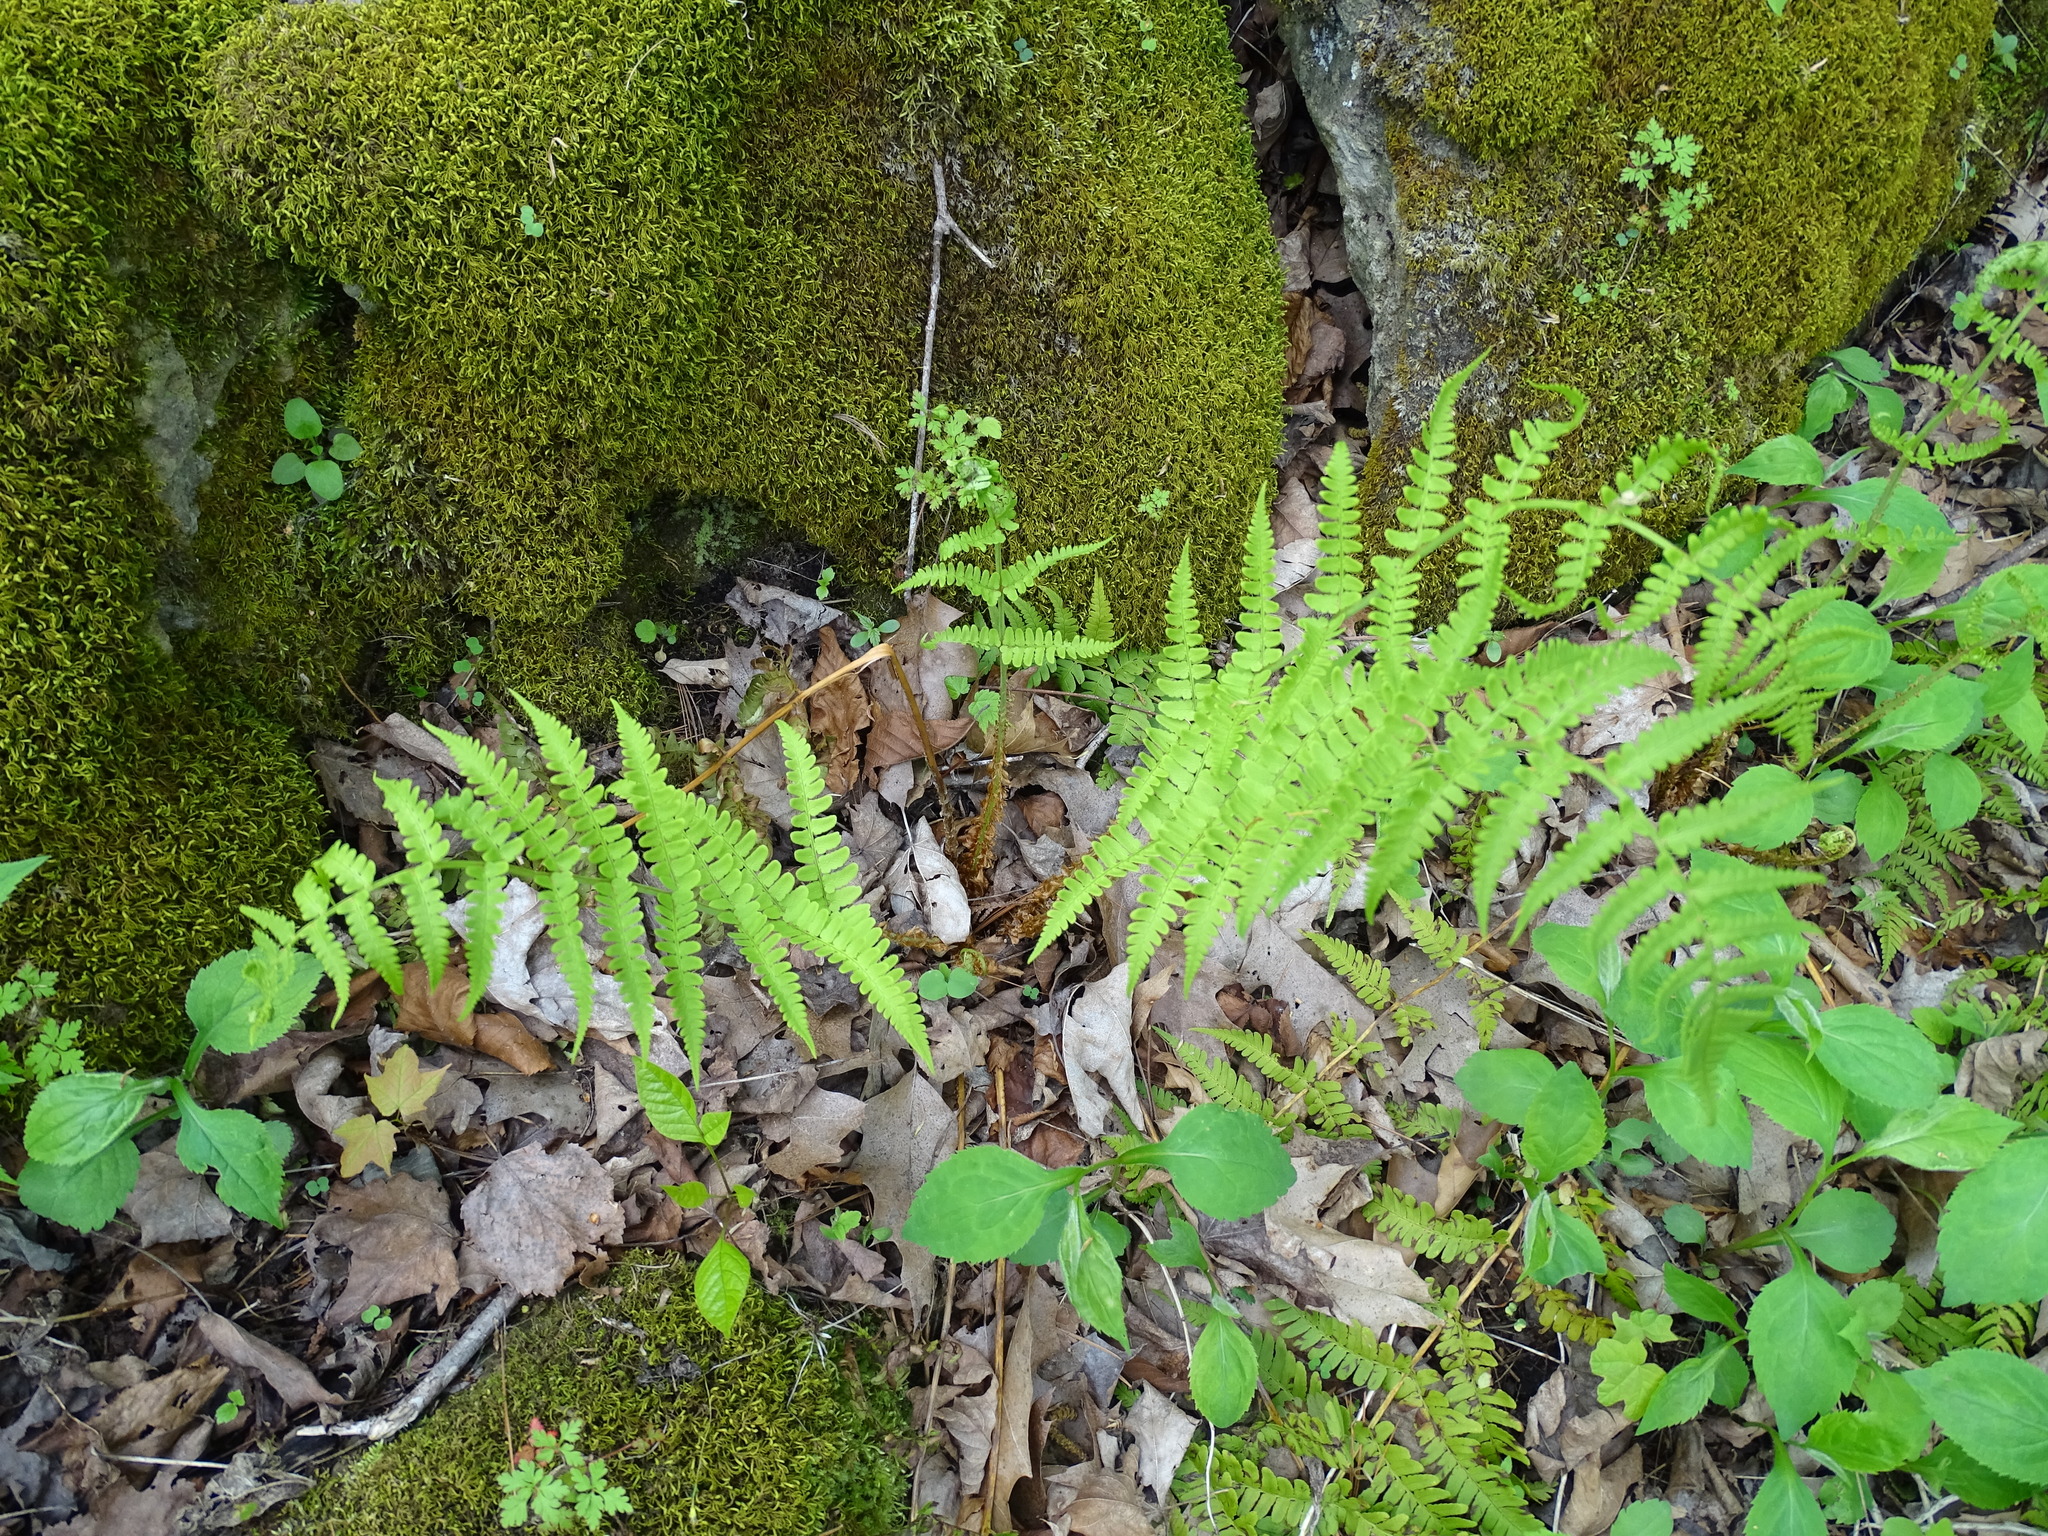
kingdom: Plantae
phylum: Tracheophyta
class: Polypodiopsida
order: Polypodiales
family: Dryopteridaceae
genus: Dryopteris
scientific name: Dryopteris marginalis
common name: Marginal wood fern
